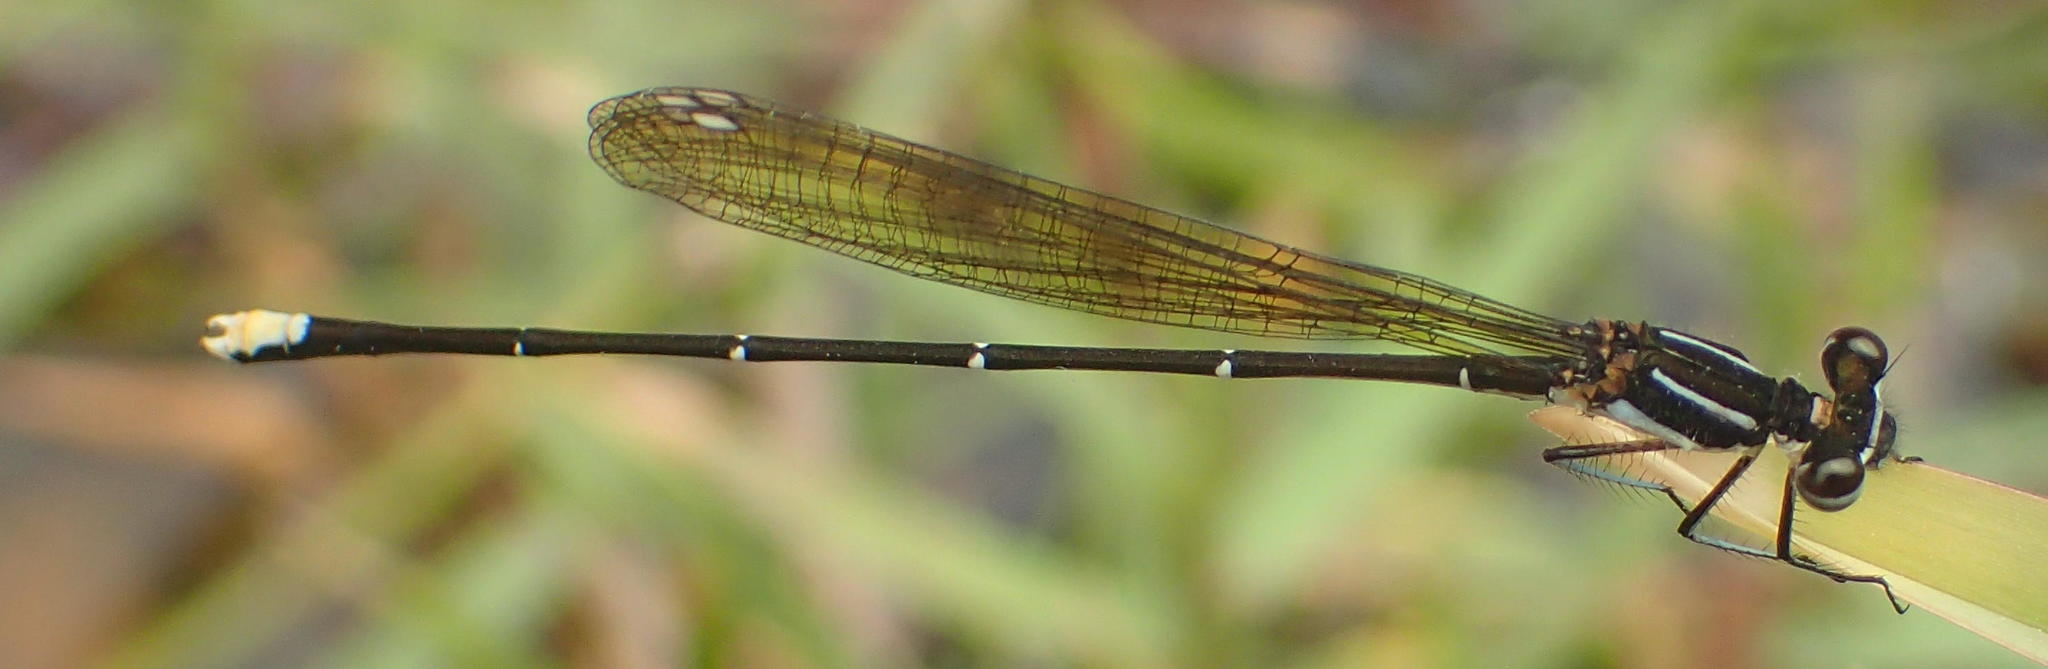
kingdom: Animalia
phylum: Arthropoda
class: Insecta
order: Odonata
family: Platycnemididae
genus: Allocnemis
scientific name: Allocnemis leucosticta
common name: Goldtail
